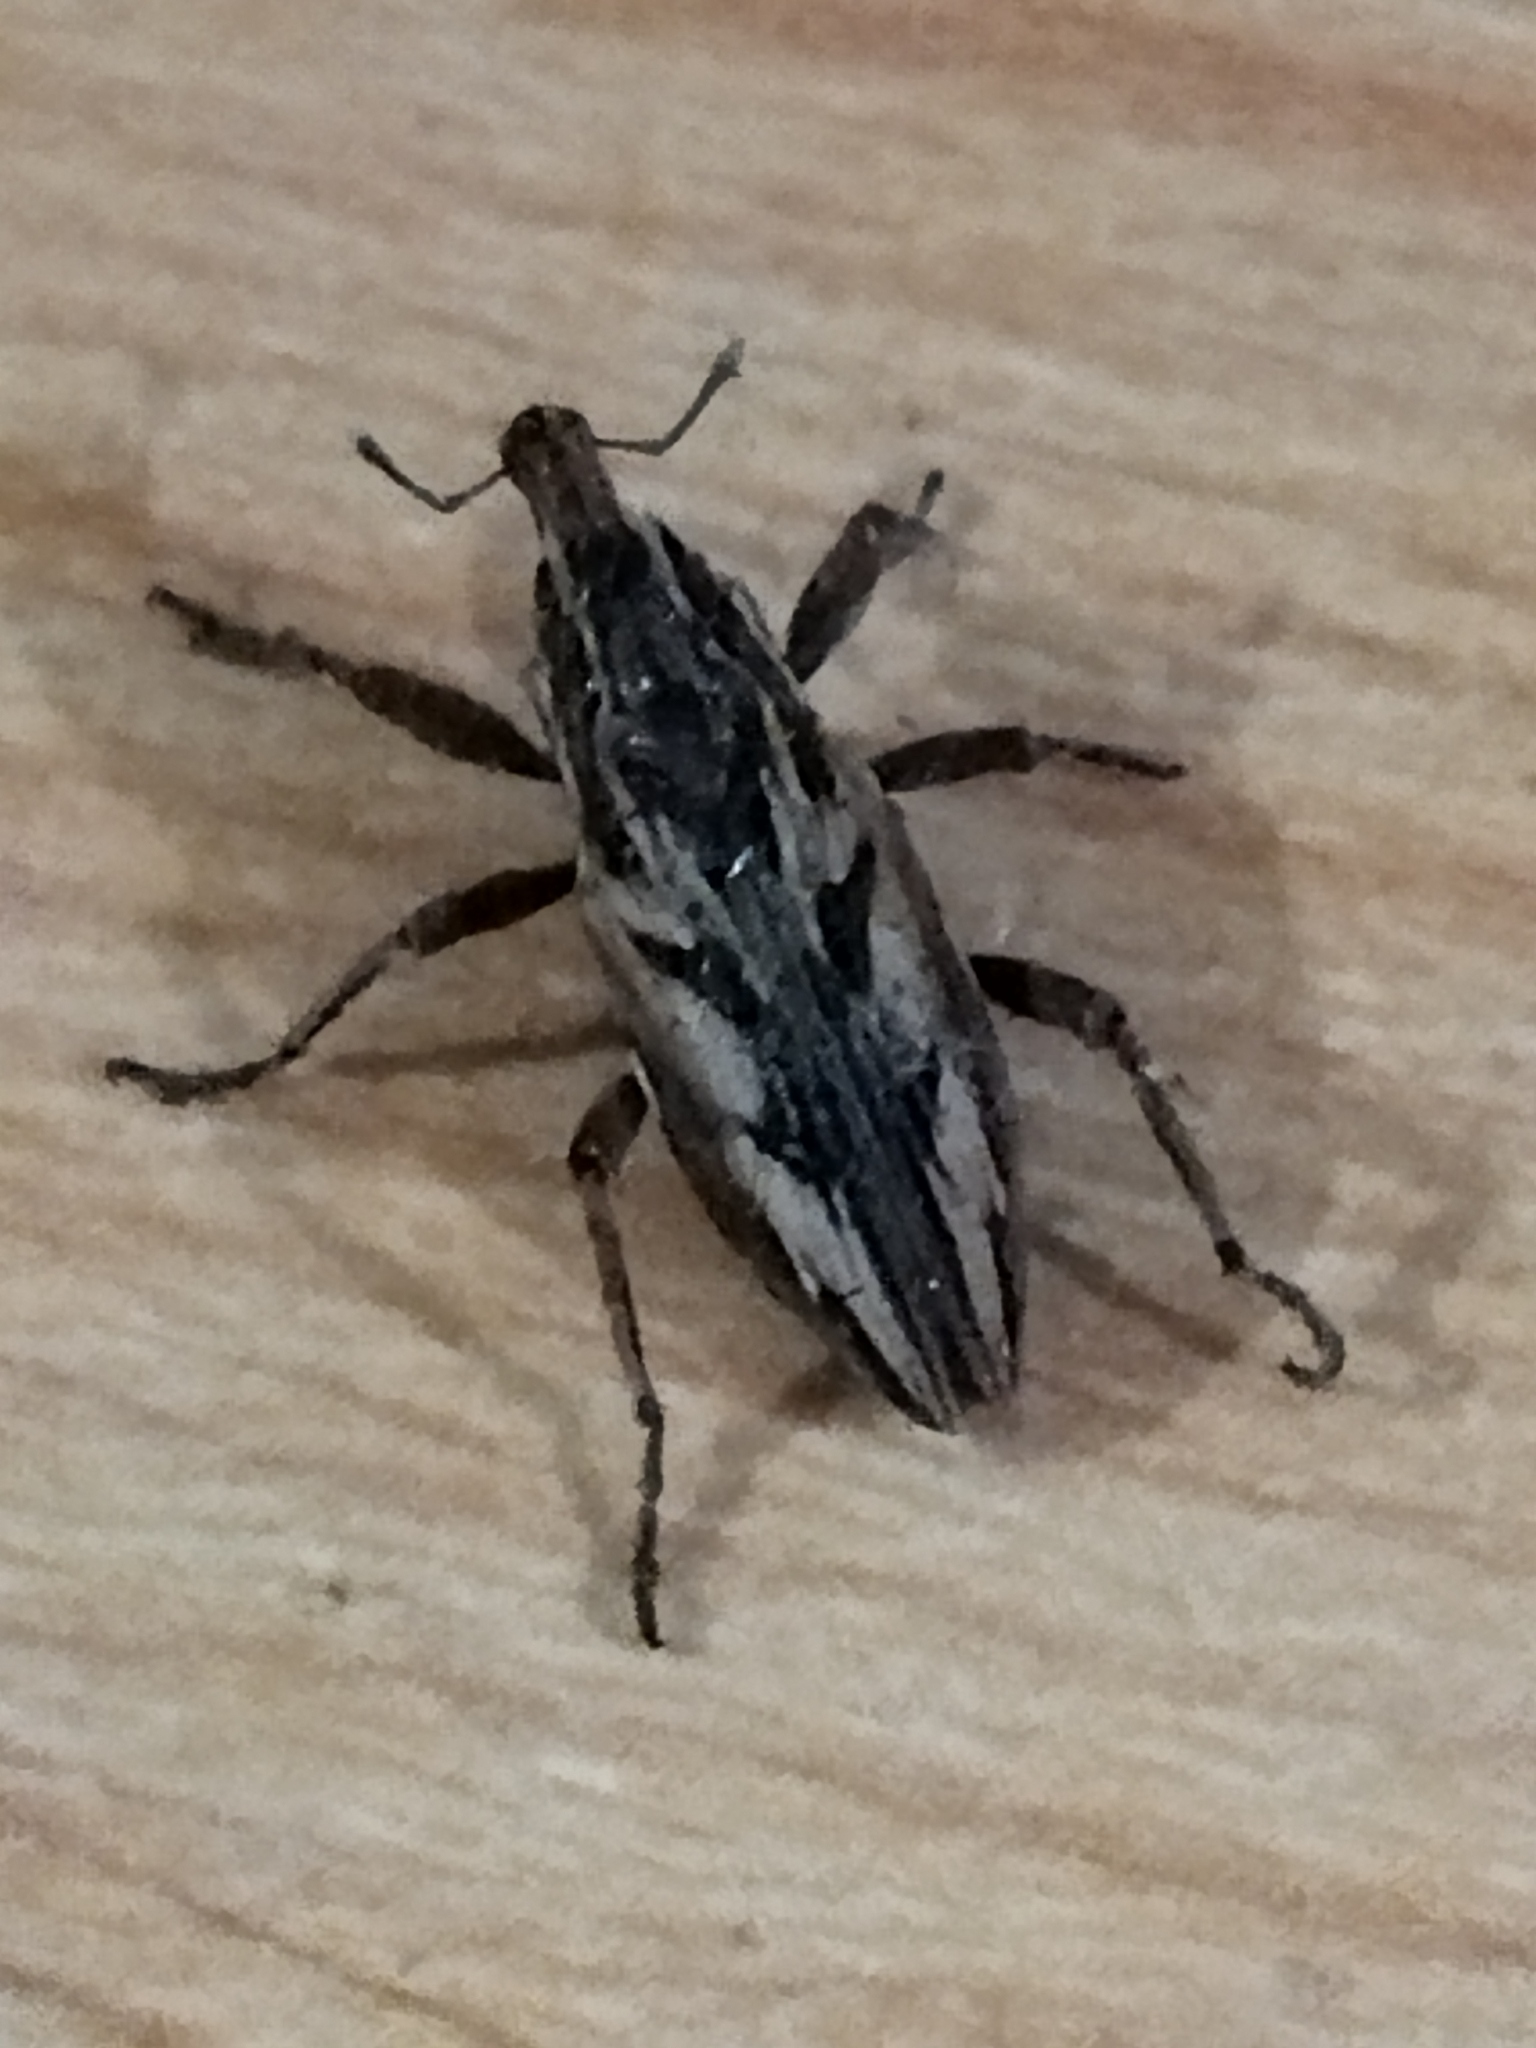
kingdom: Animalia
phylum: Arthropoda
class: Insecta
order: Coleoptera
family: Curculionidae
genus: Coniocleonus
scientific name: Coniocleonus nigrosuturatus
